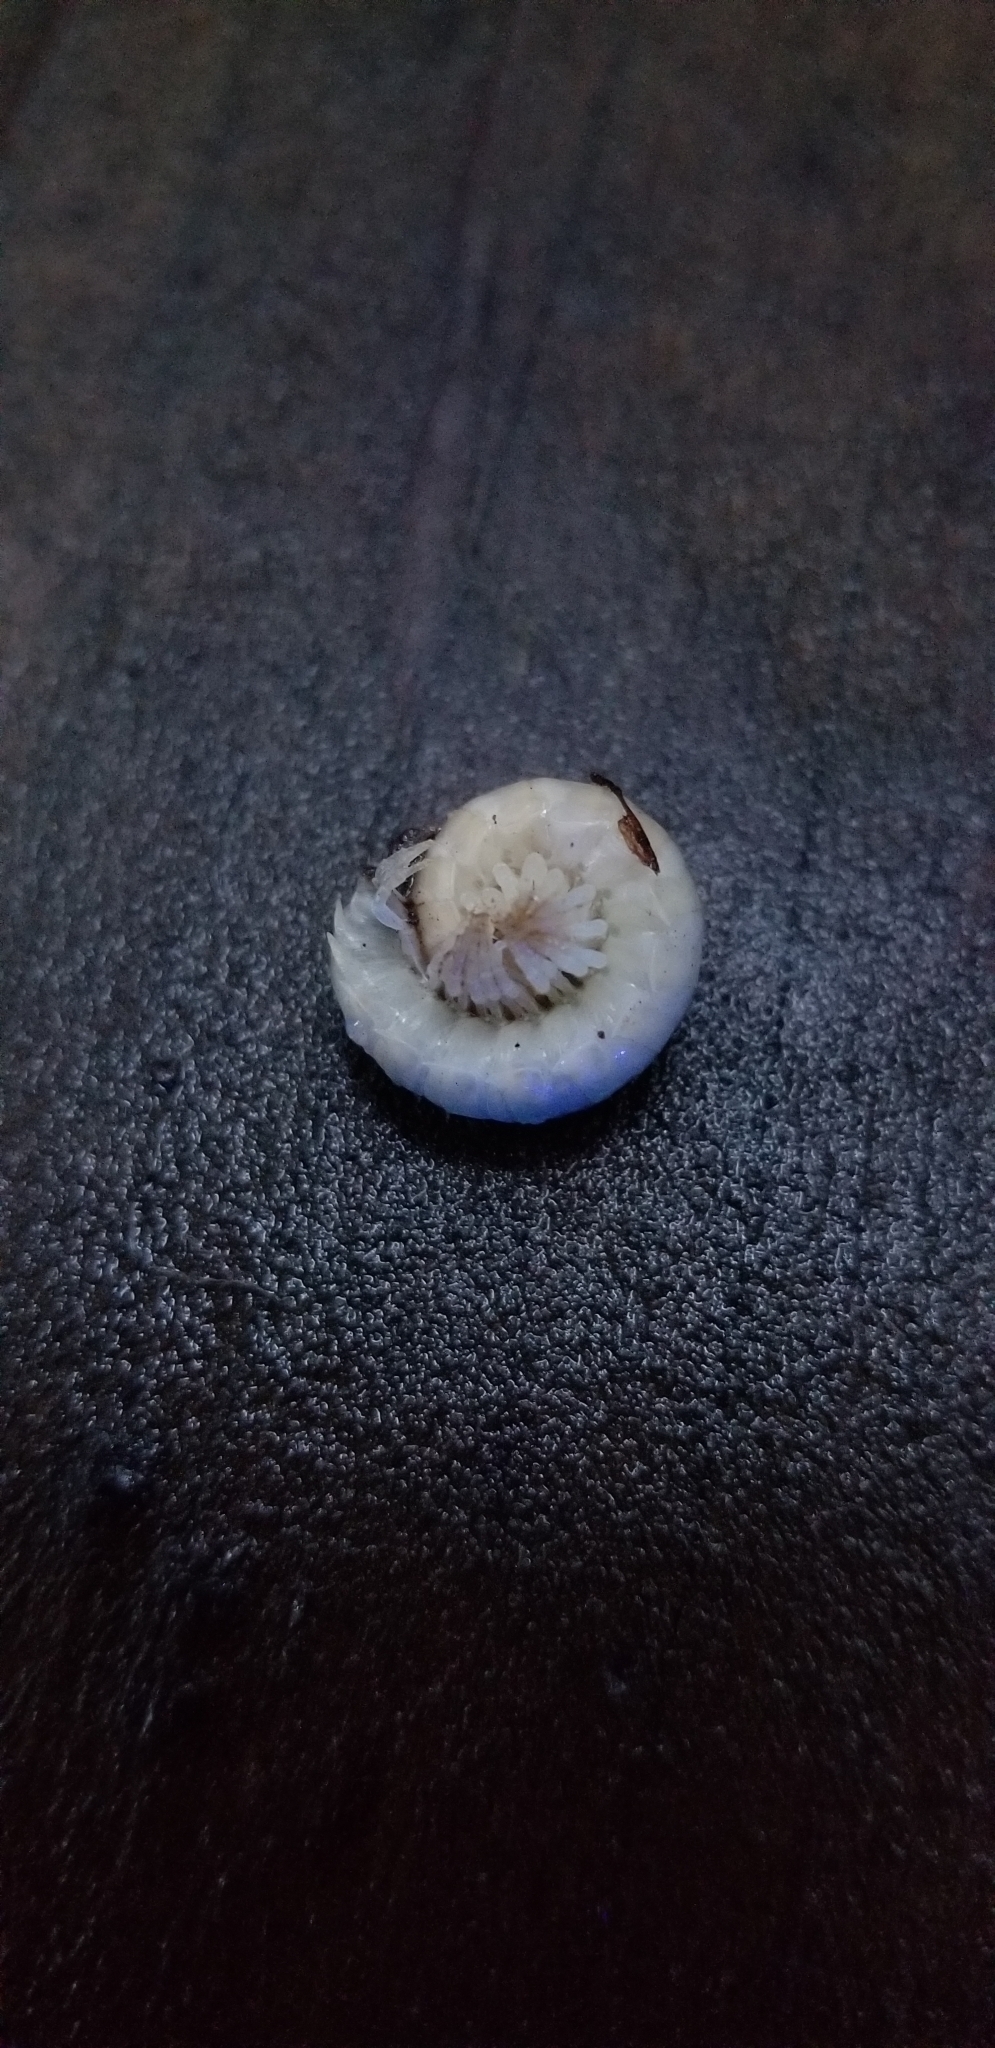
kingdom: Animalia
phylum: Arthropoda
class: Diplopoda
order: Polydesmida
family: Xystodesmidae
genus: Xystocheir
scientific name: Xystocheir dissecta
